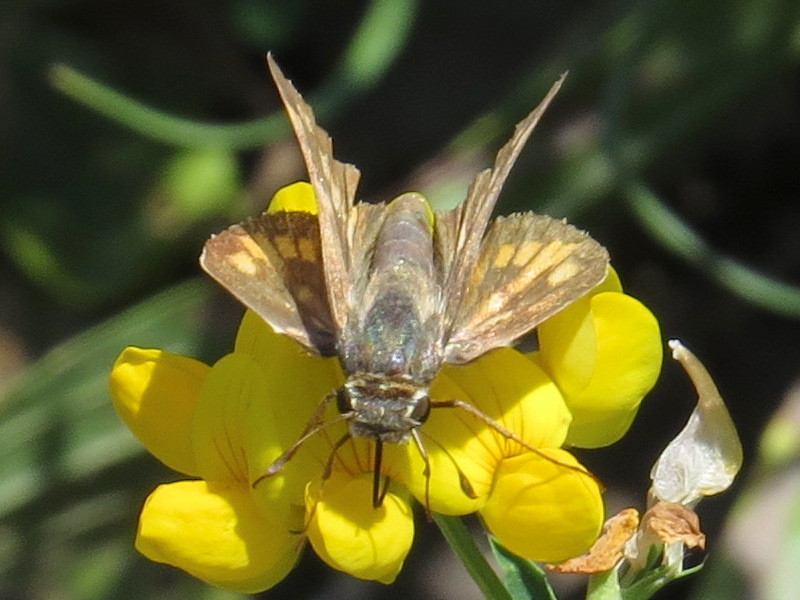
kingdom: Animalia
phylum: Arthropoda
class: Insecta
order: Lepidoptera
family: Hesperiidae
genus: Hylephila
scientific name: Hylephila phyleus
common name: Fiery skipper
